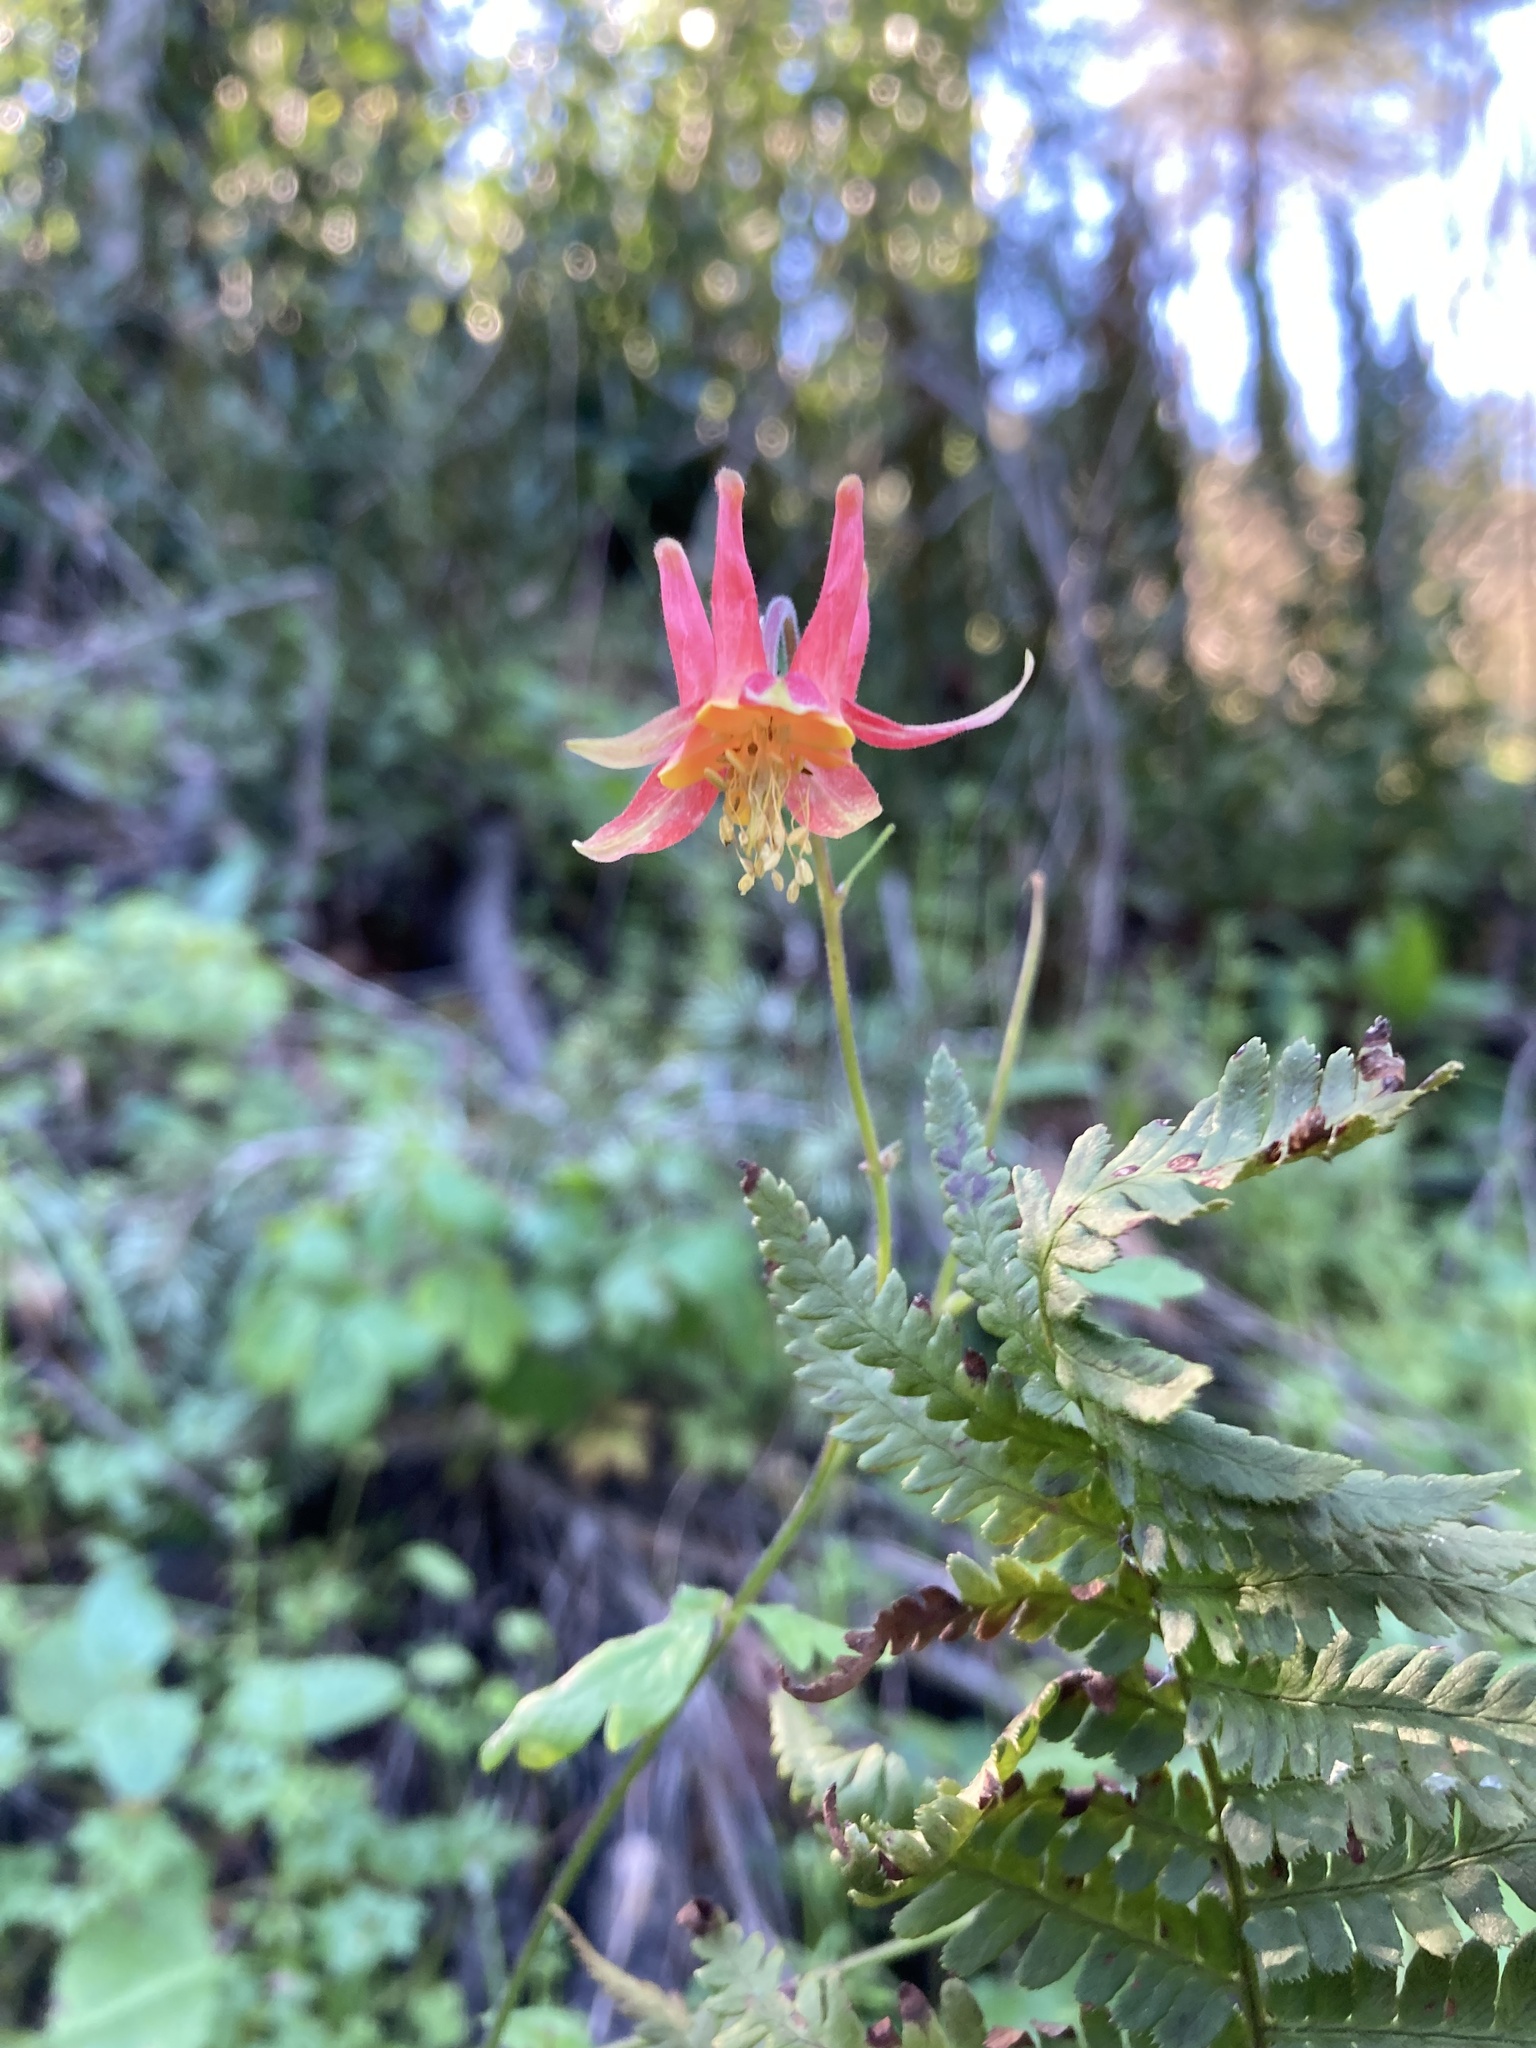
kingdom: Plantae
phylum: Tracheophyta
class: Magnoliopsida
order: Ranunculales
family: Ranunculaceae
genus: Aquilegia
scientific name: Aquilegia formosa
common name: Sitka columbine
